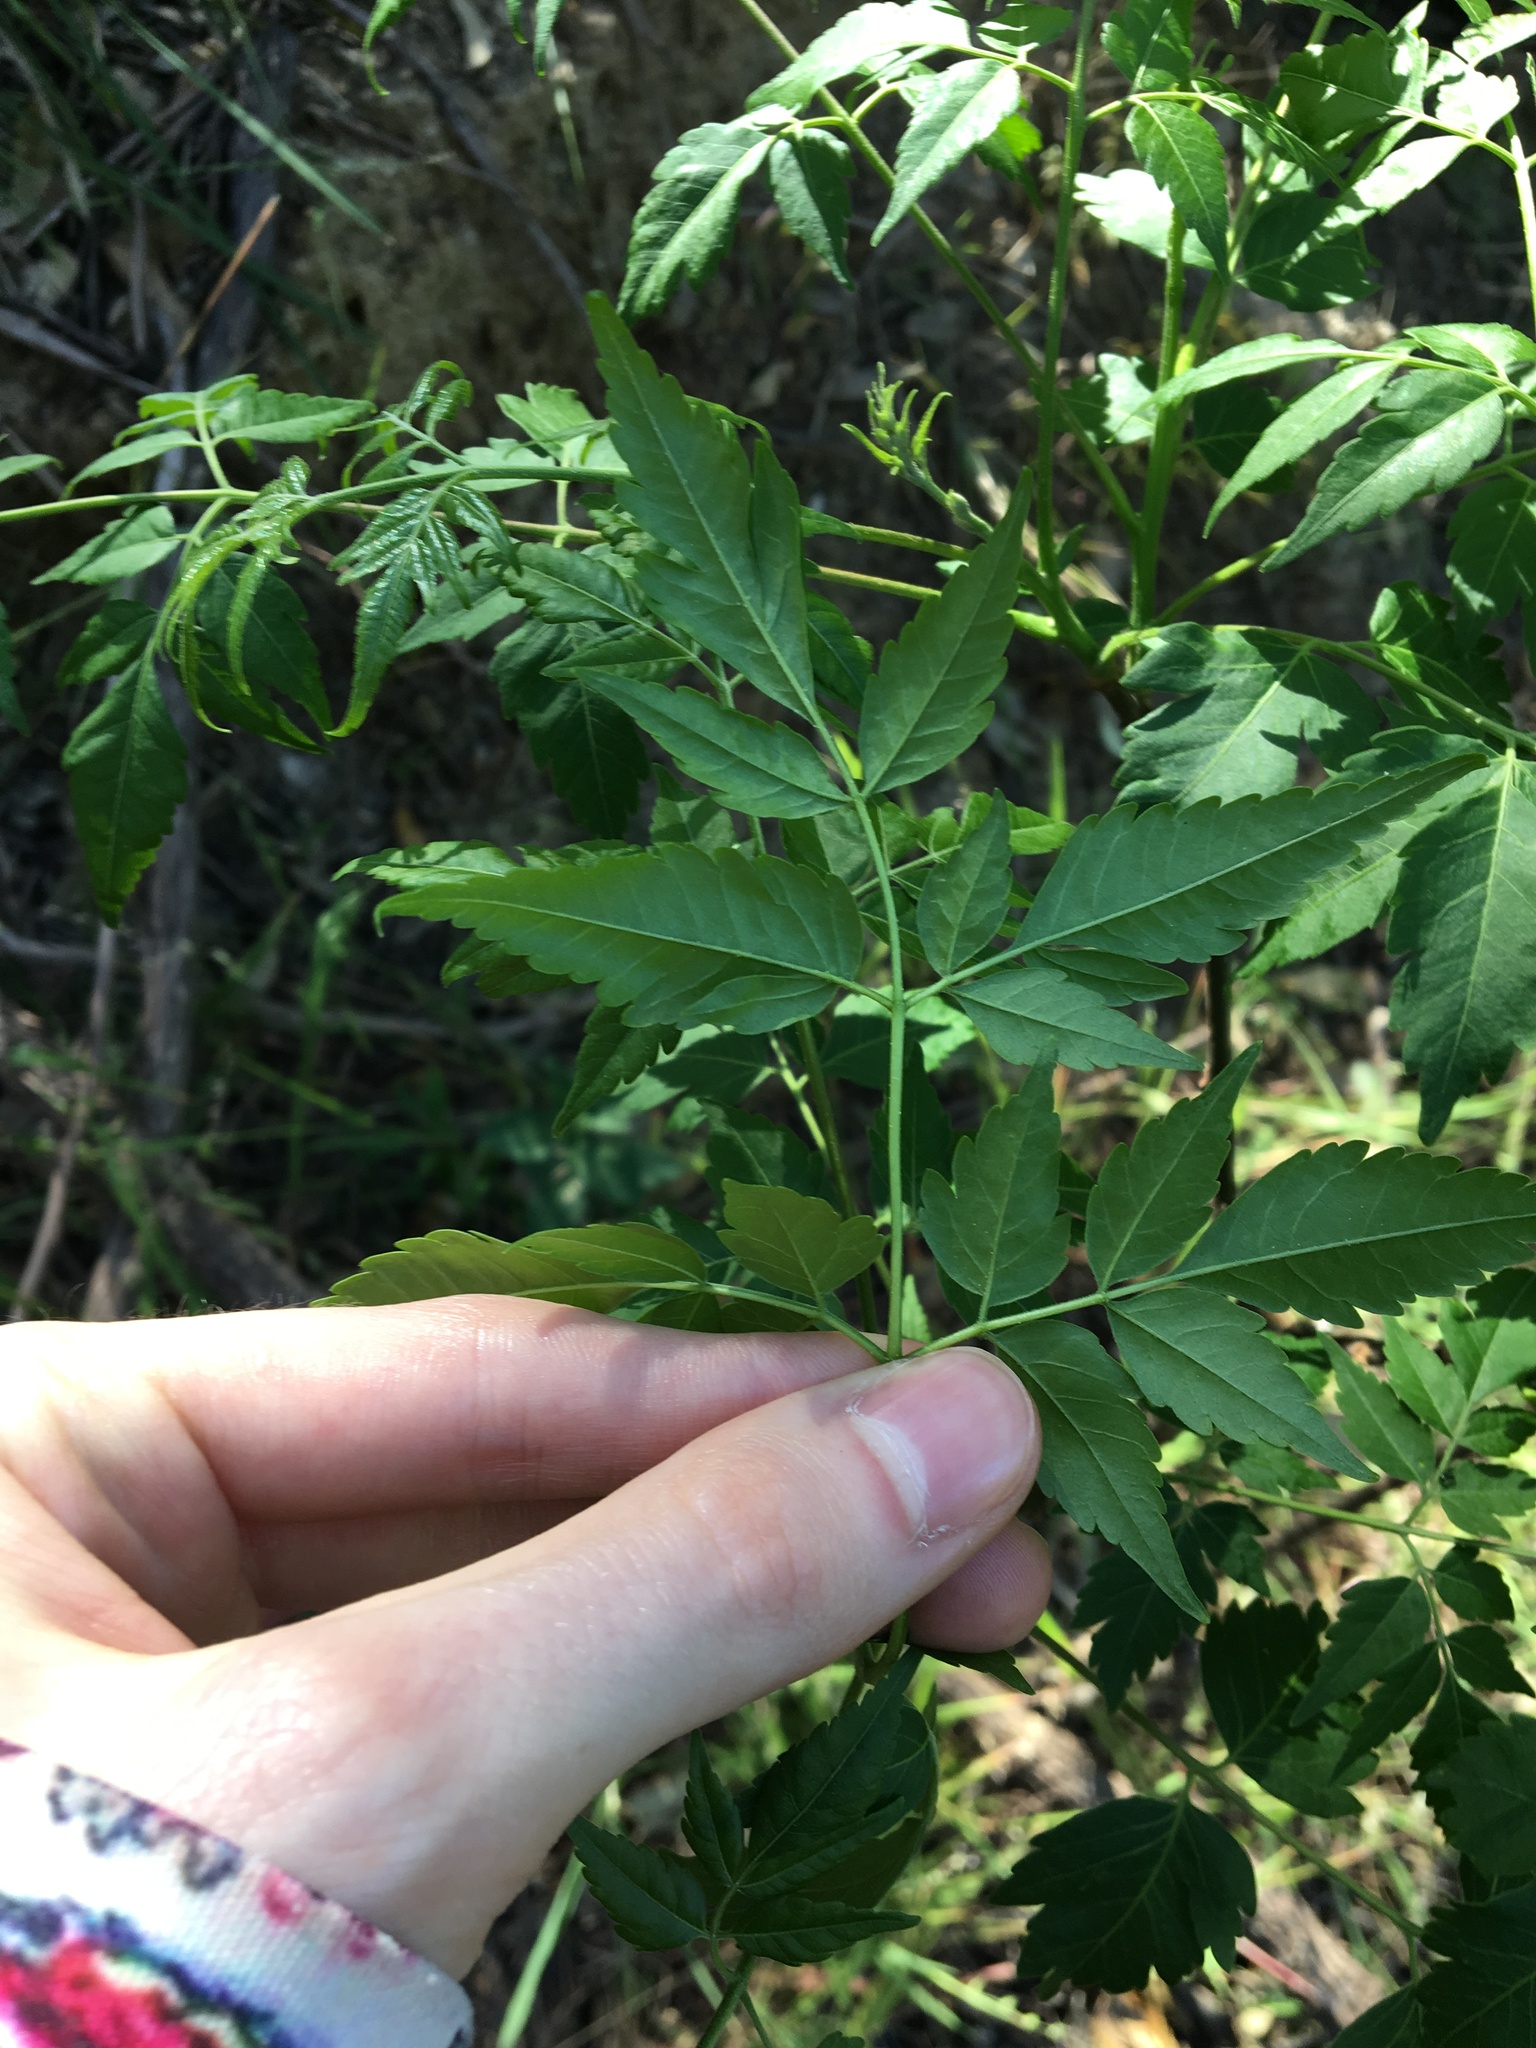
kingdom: Plantae
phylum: Tracheophyta
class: Magnoliopsida
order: Sapindales
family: Meliaceae
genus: Melia
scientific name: Melia azedarach
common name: Chinaberrytree
